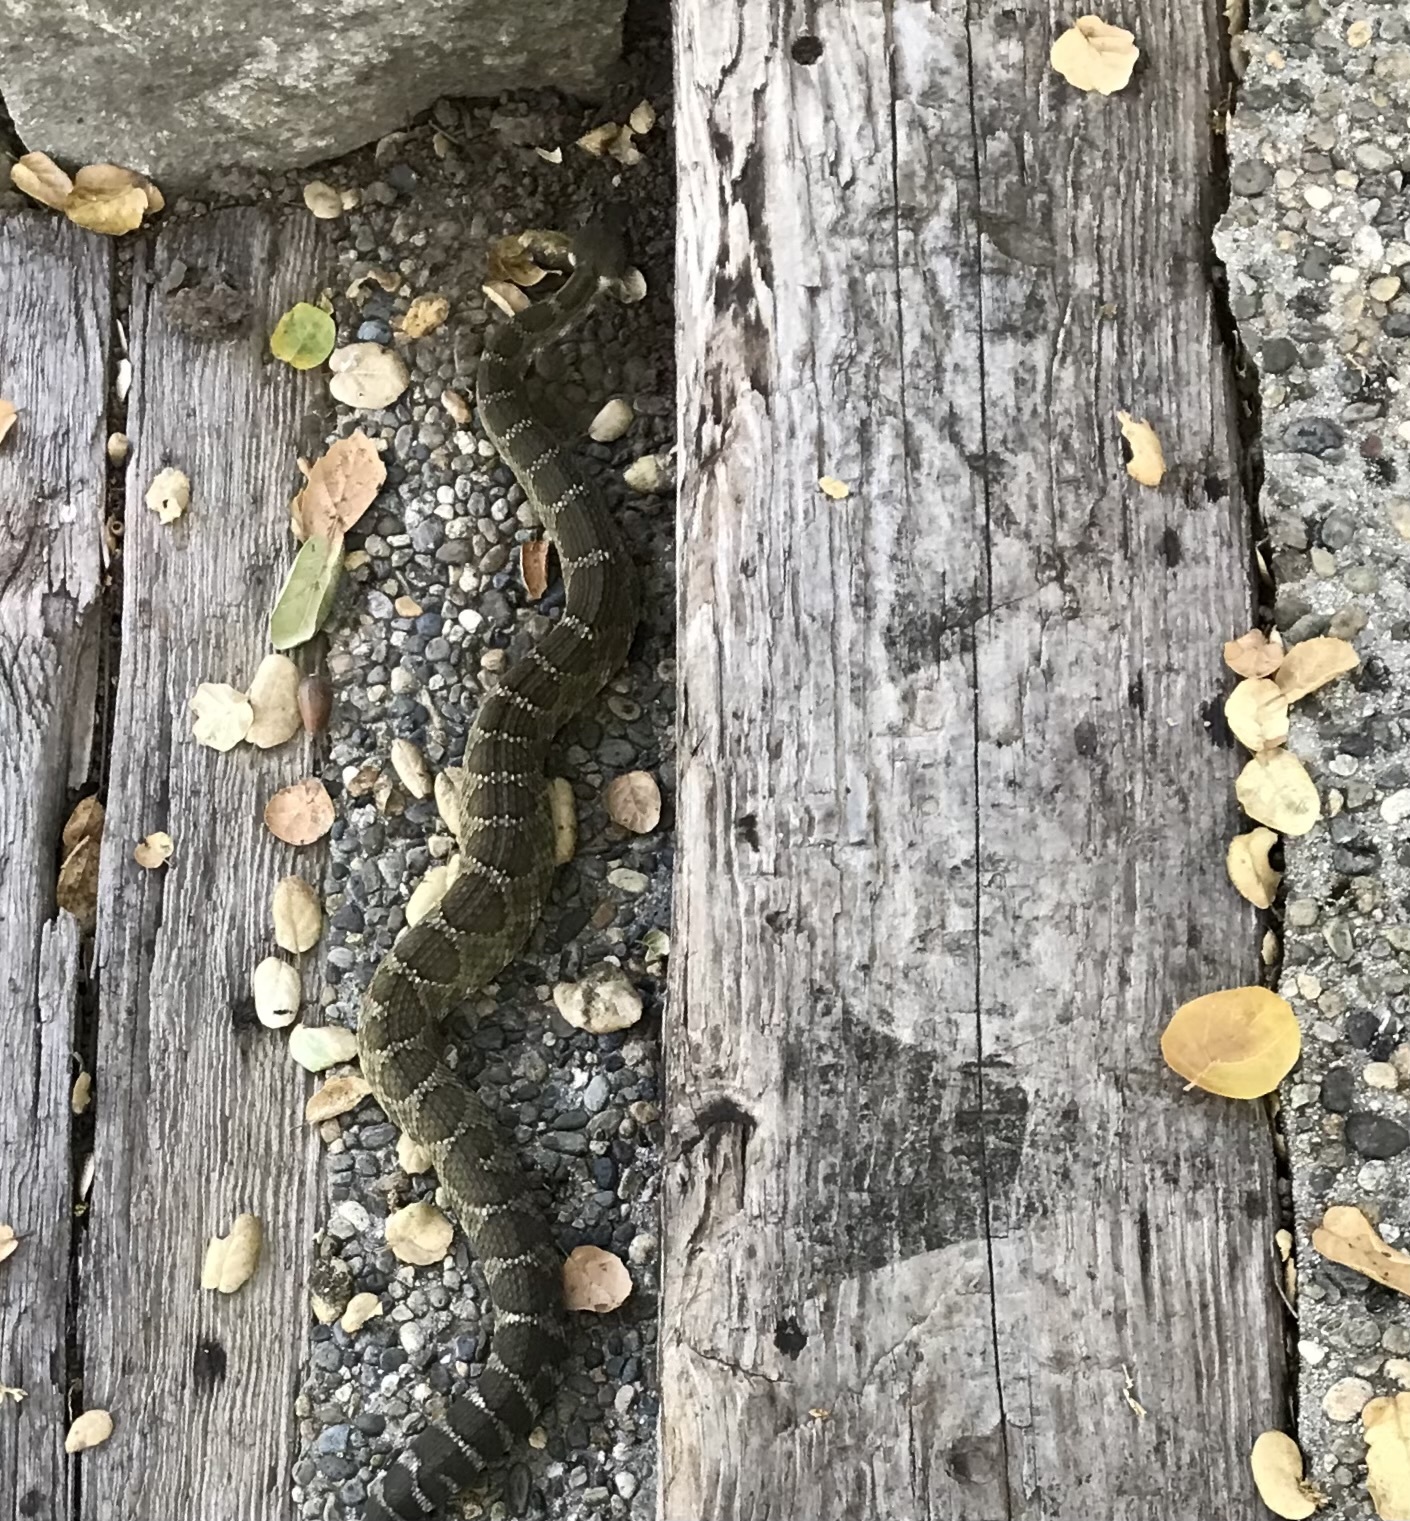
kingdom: Animalia
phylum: Chordata
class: Squamata
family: Viperidae
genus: Crotalus
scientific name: Crotalus oreganus
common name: Abyssus
